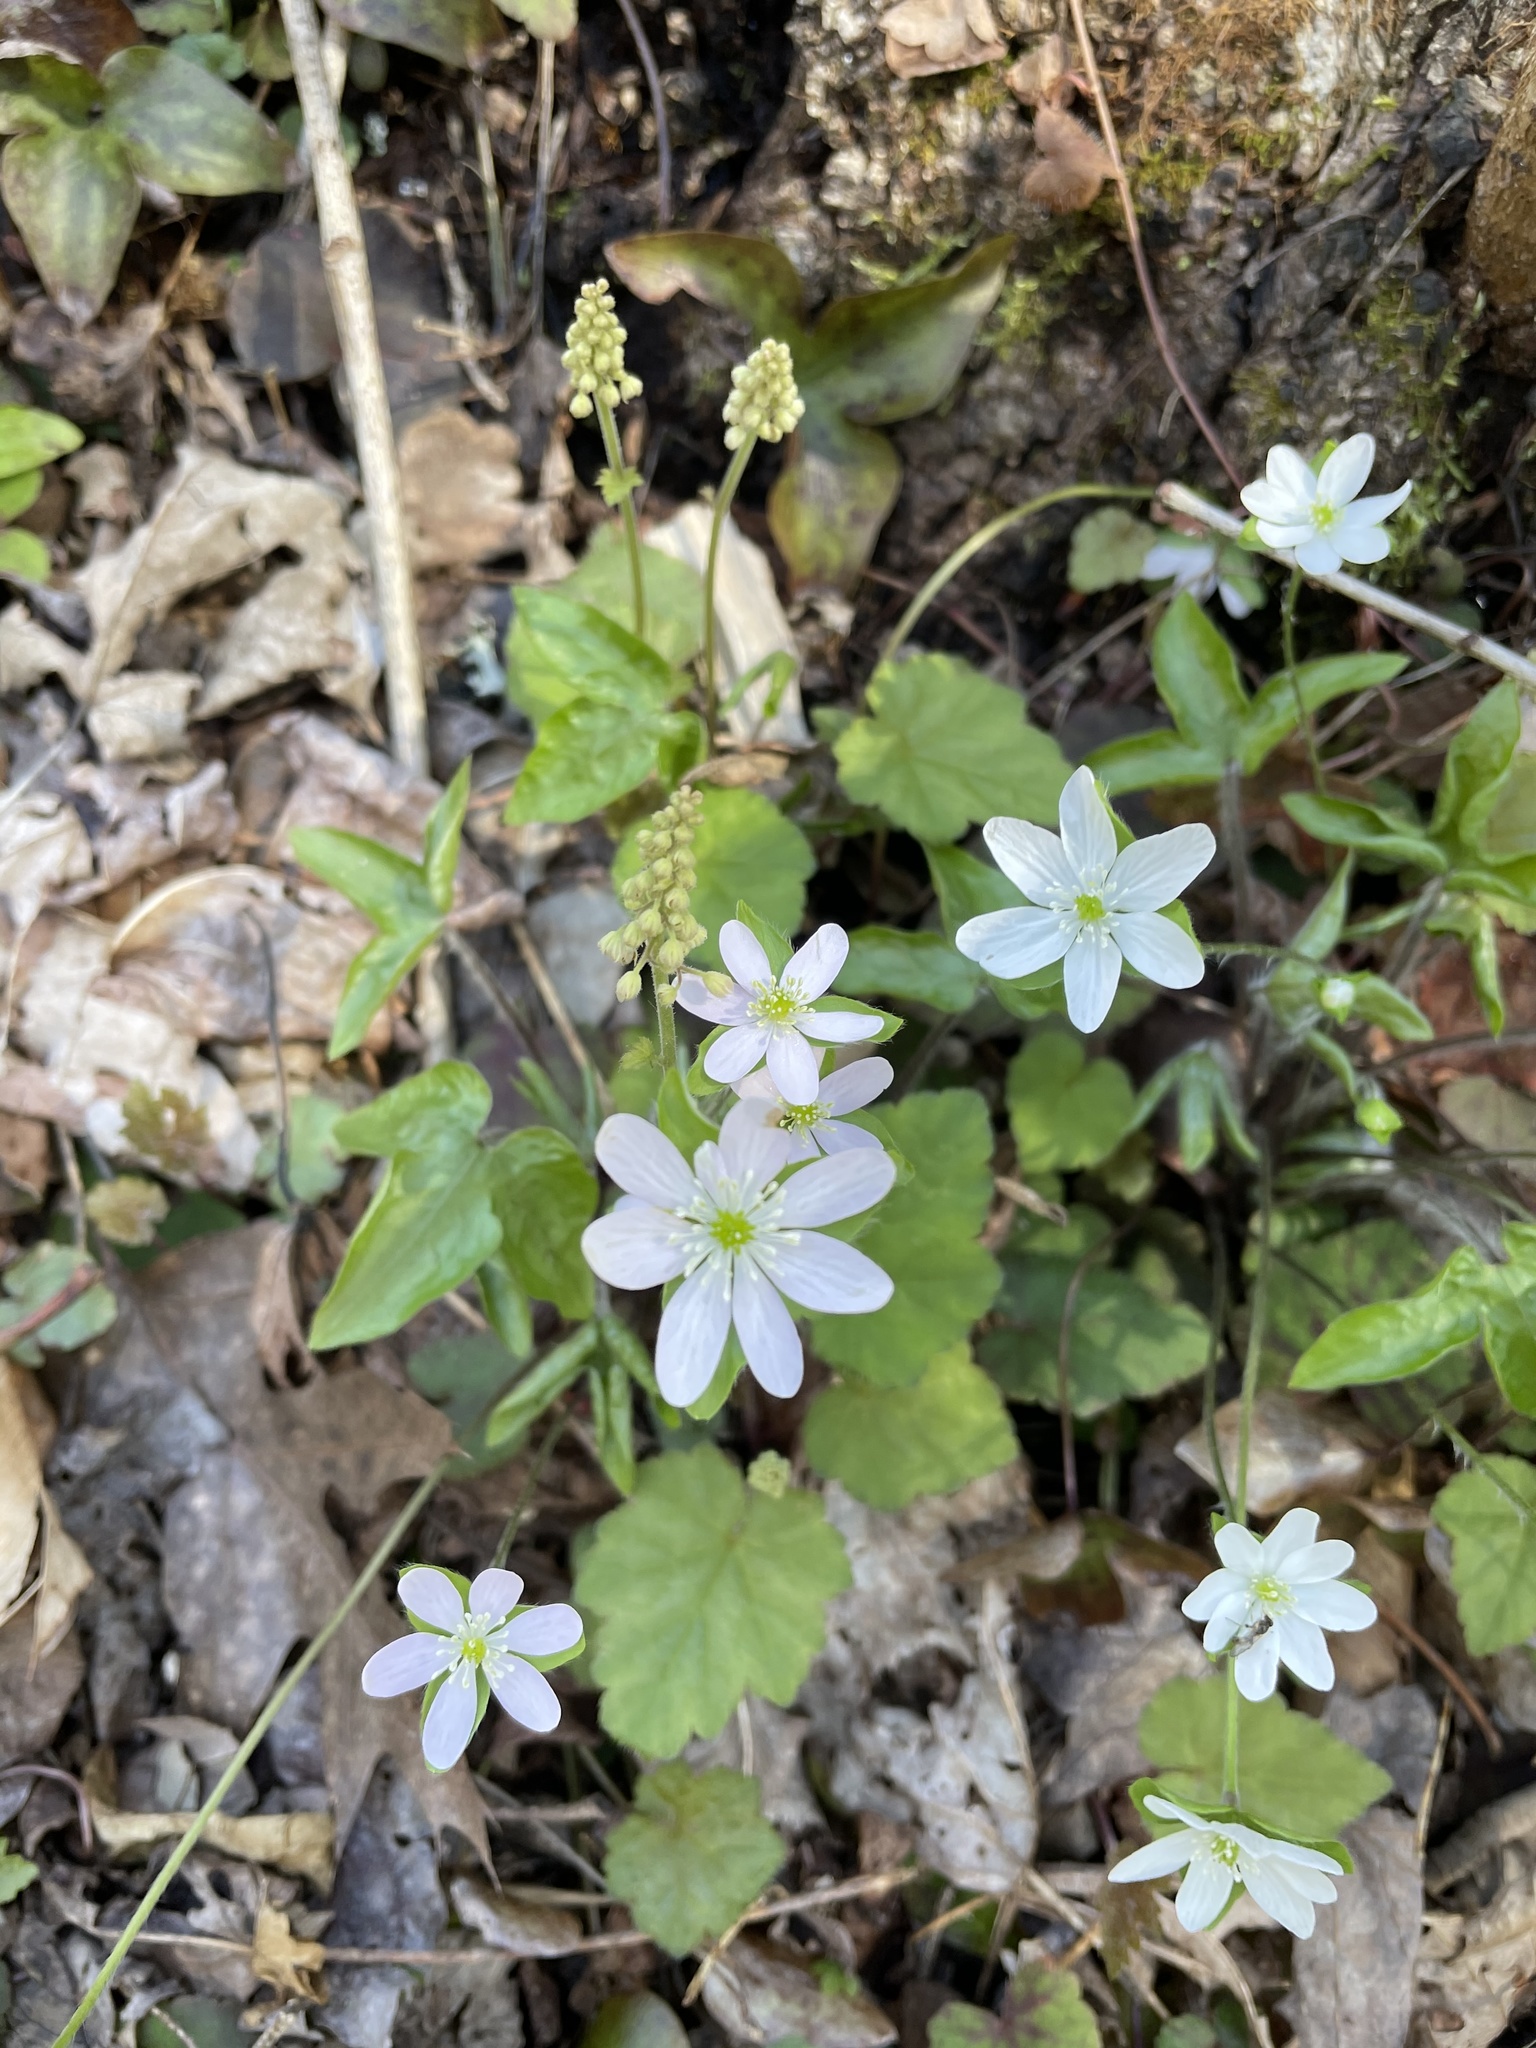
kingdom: Plantae
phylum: Tracheophyta
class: Magnoliopsida
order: Ranunculales
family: Ranunculaceae
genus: Hepatica
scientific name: Hepatica acutiloba
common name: Sharp-lobed hepatica
